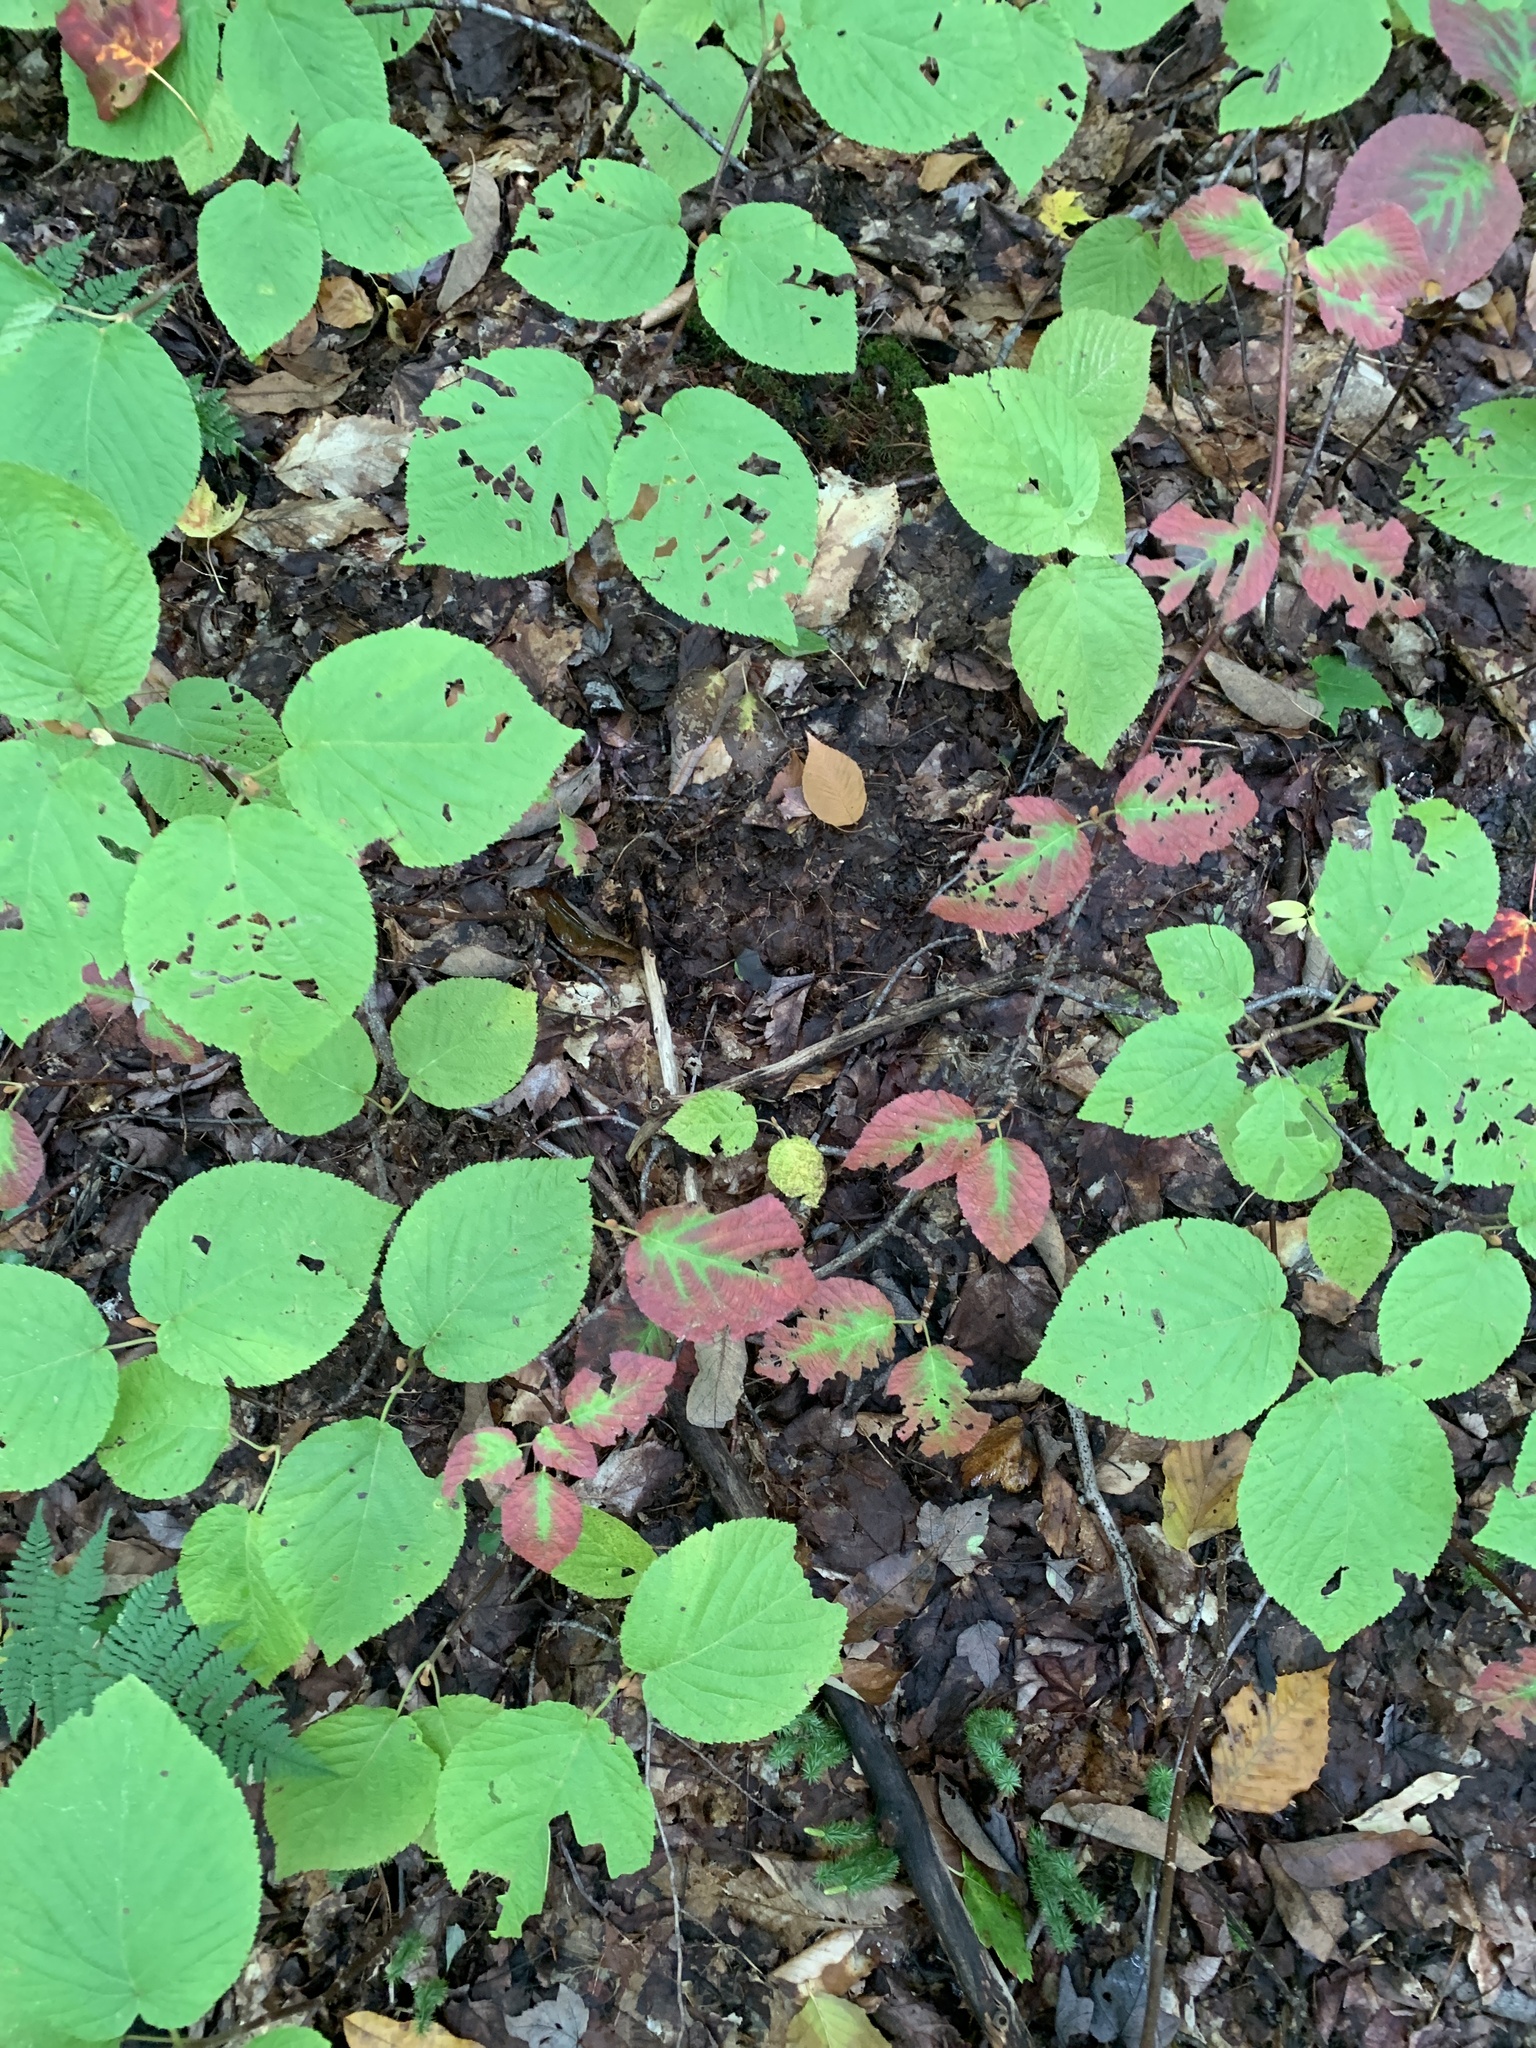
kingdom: Plantae
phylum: Tracheophyta
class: Magnoliopsida
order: Dipsacales
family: Viburnaceae
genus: Viburnum
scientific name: Viburnum lantanoides
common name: Hobblebush
